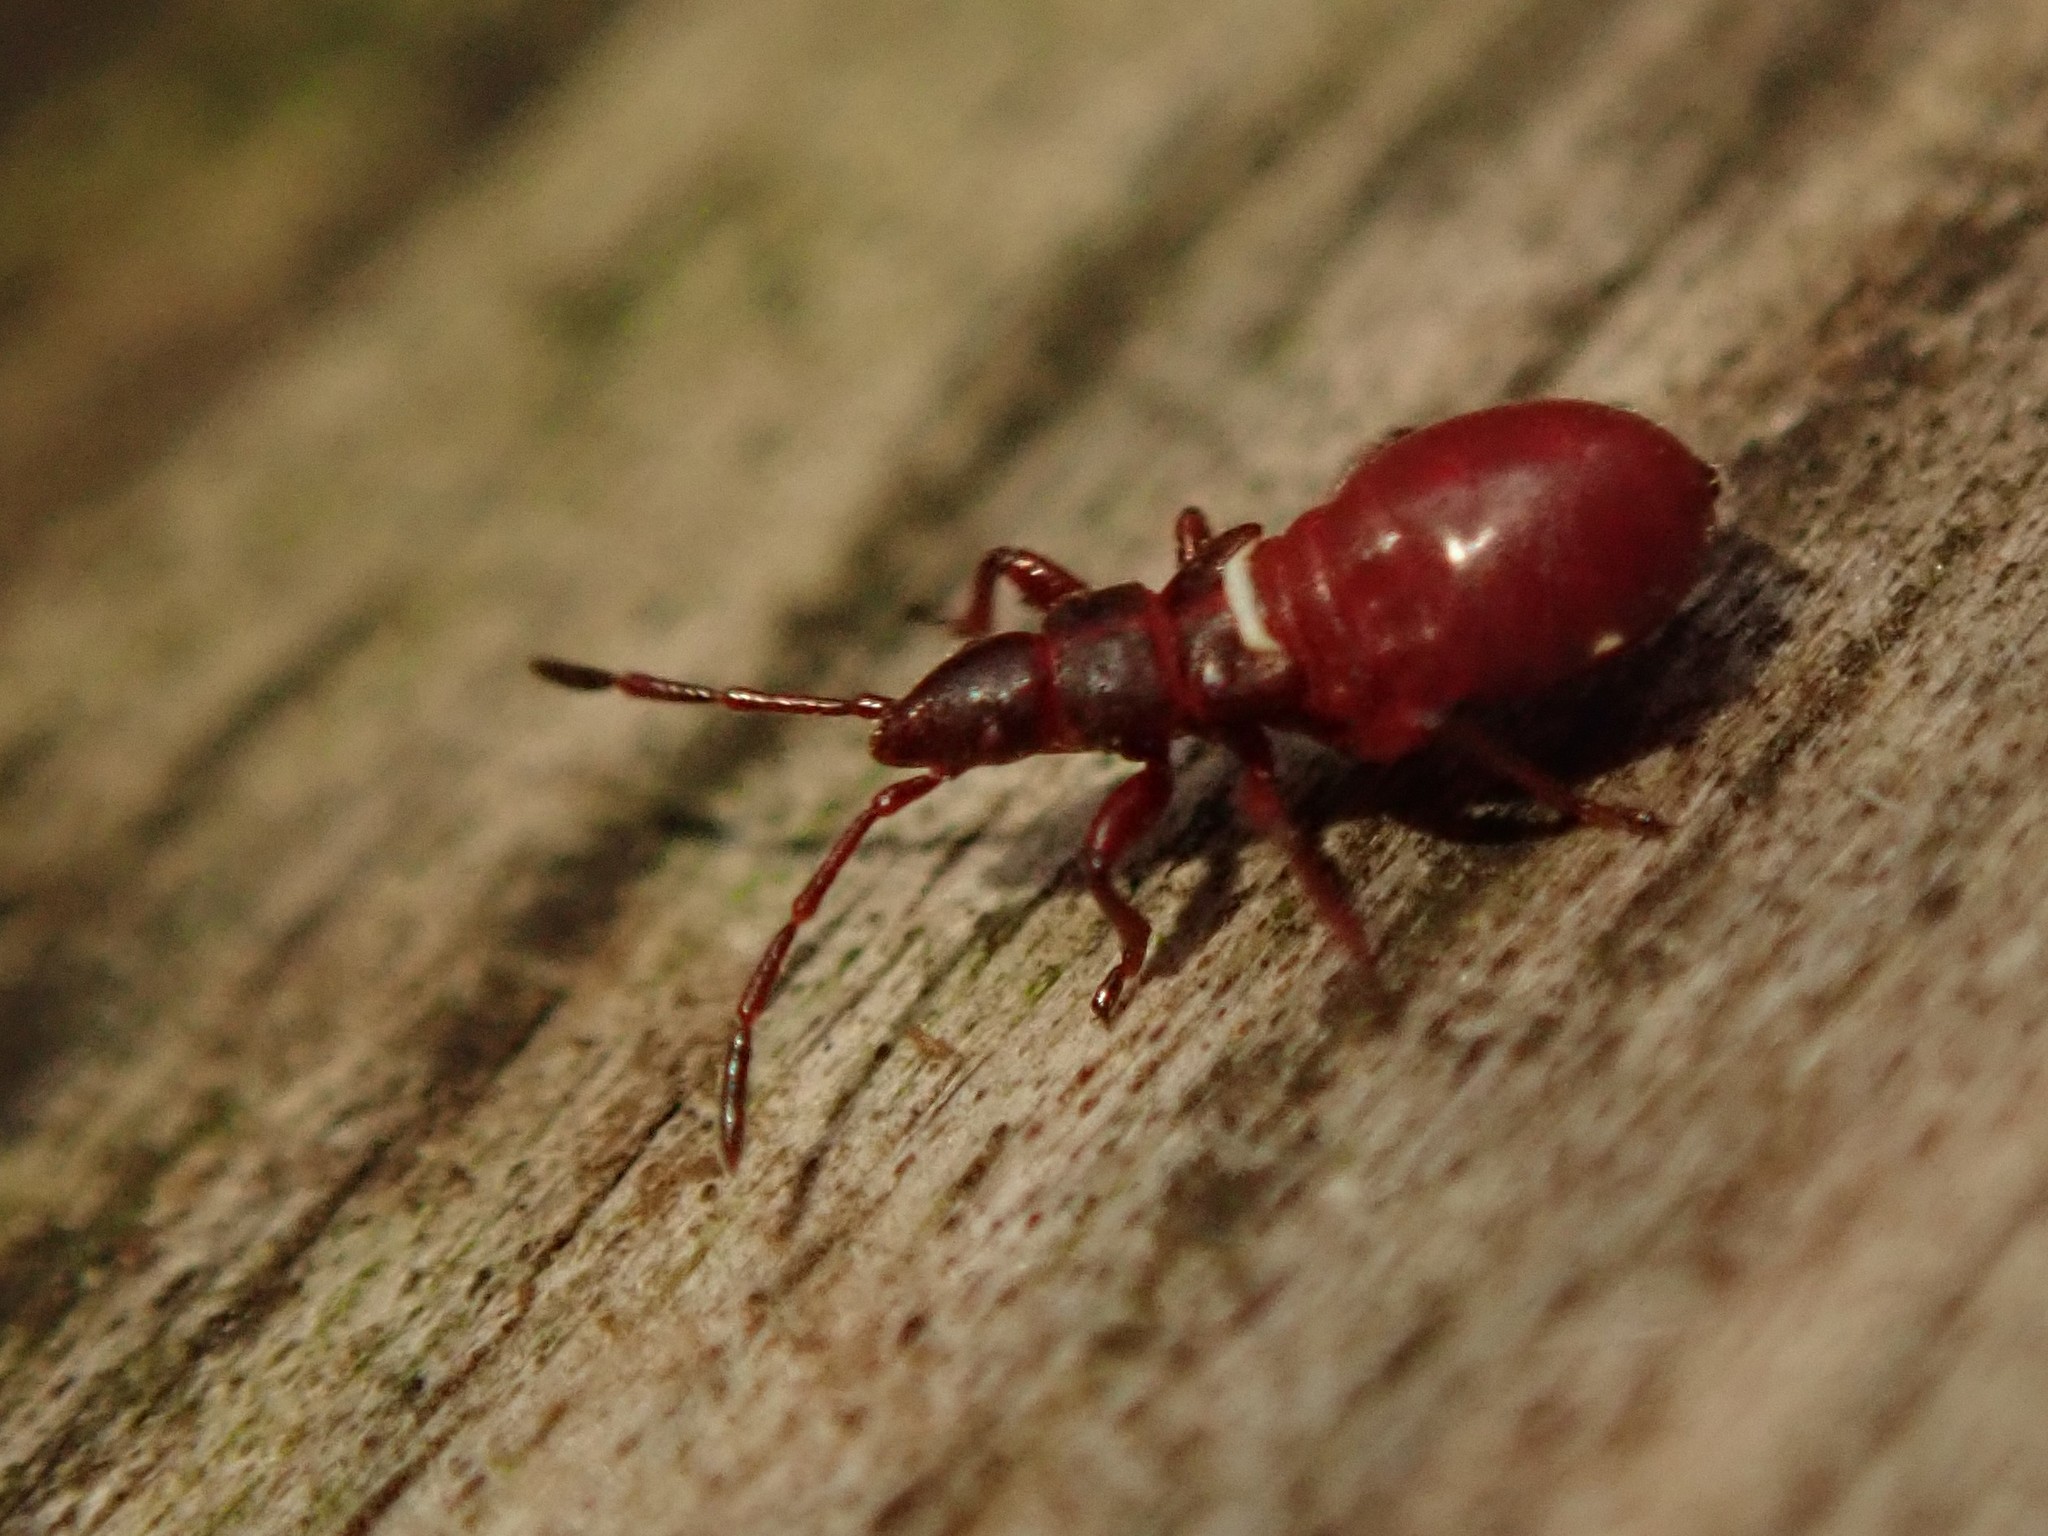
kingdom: Animalia
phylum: Arthropoda
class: Insecta
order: Hemiptera
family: Oxycarenidae
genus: Oxycarenus
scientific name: Oxycarenus lavaterae
